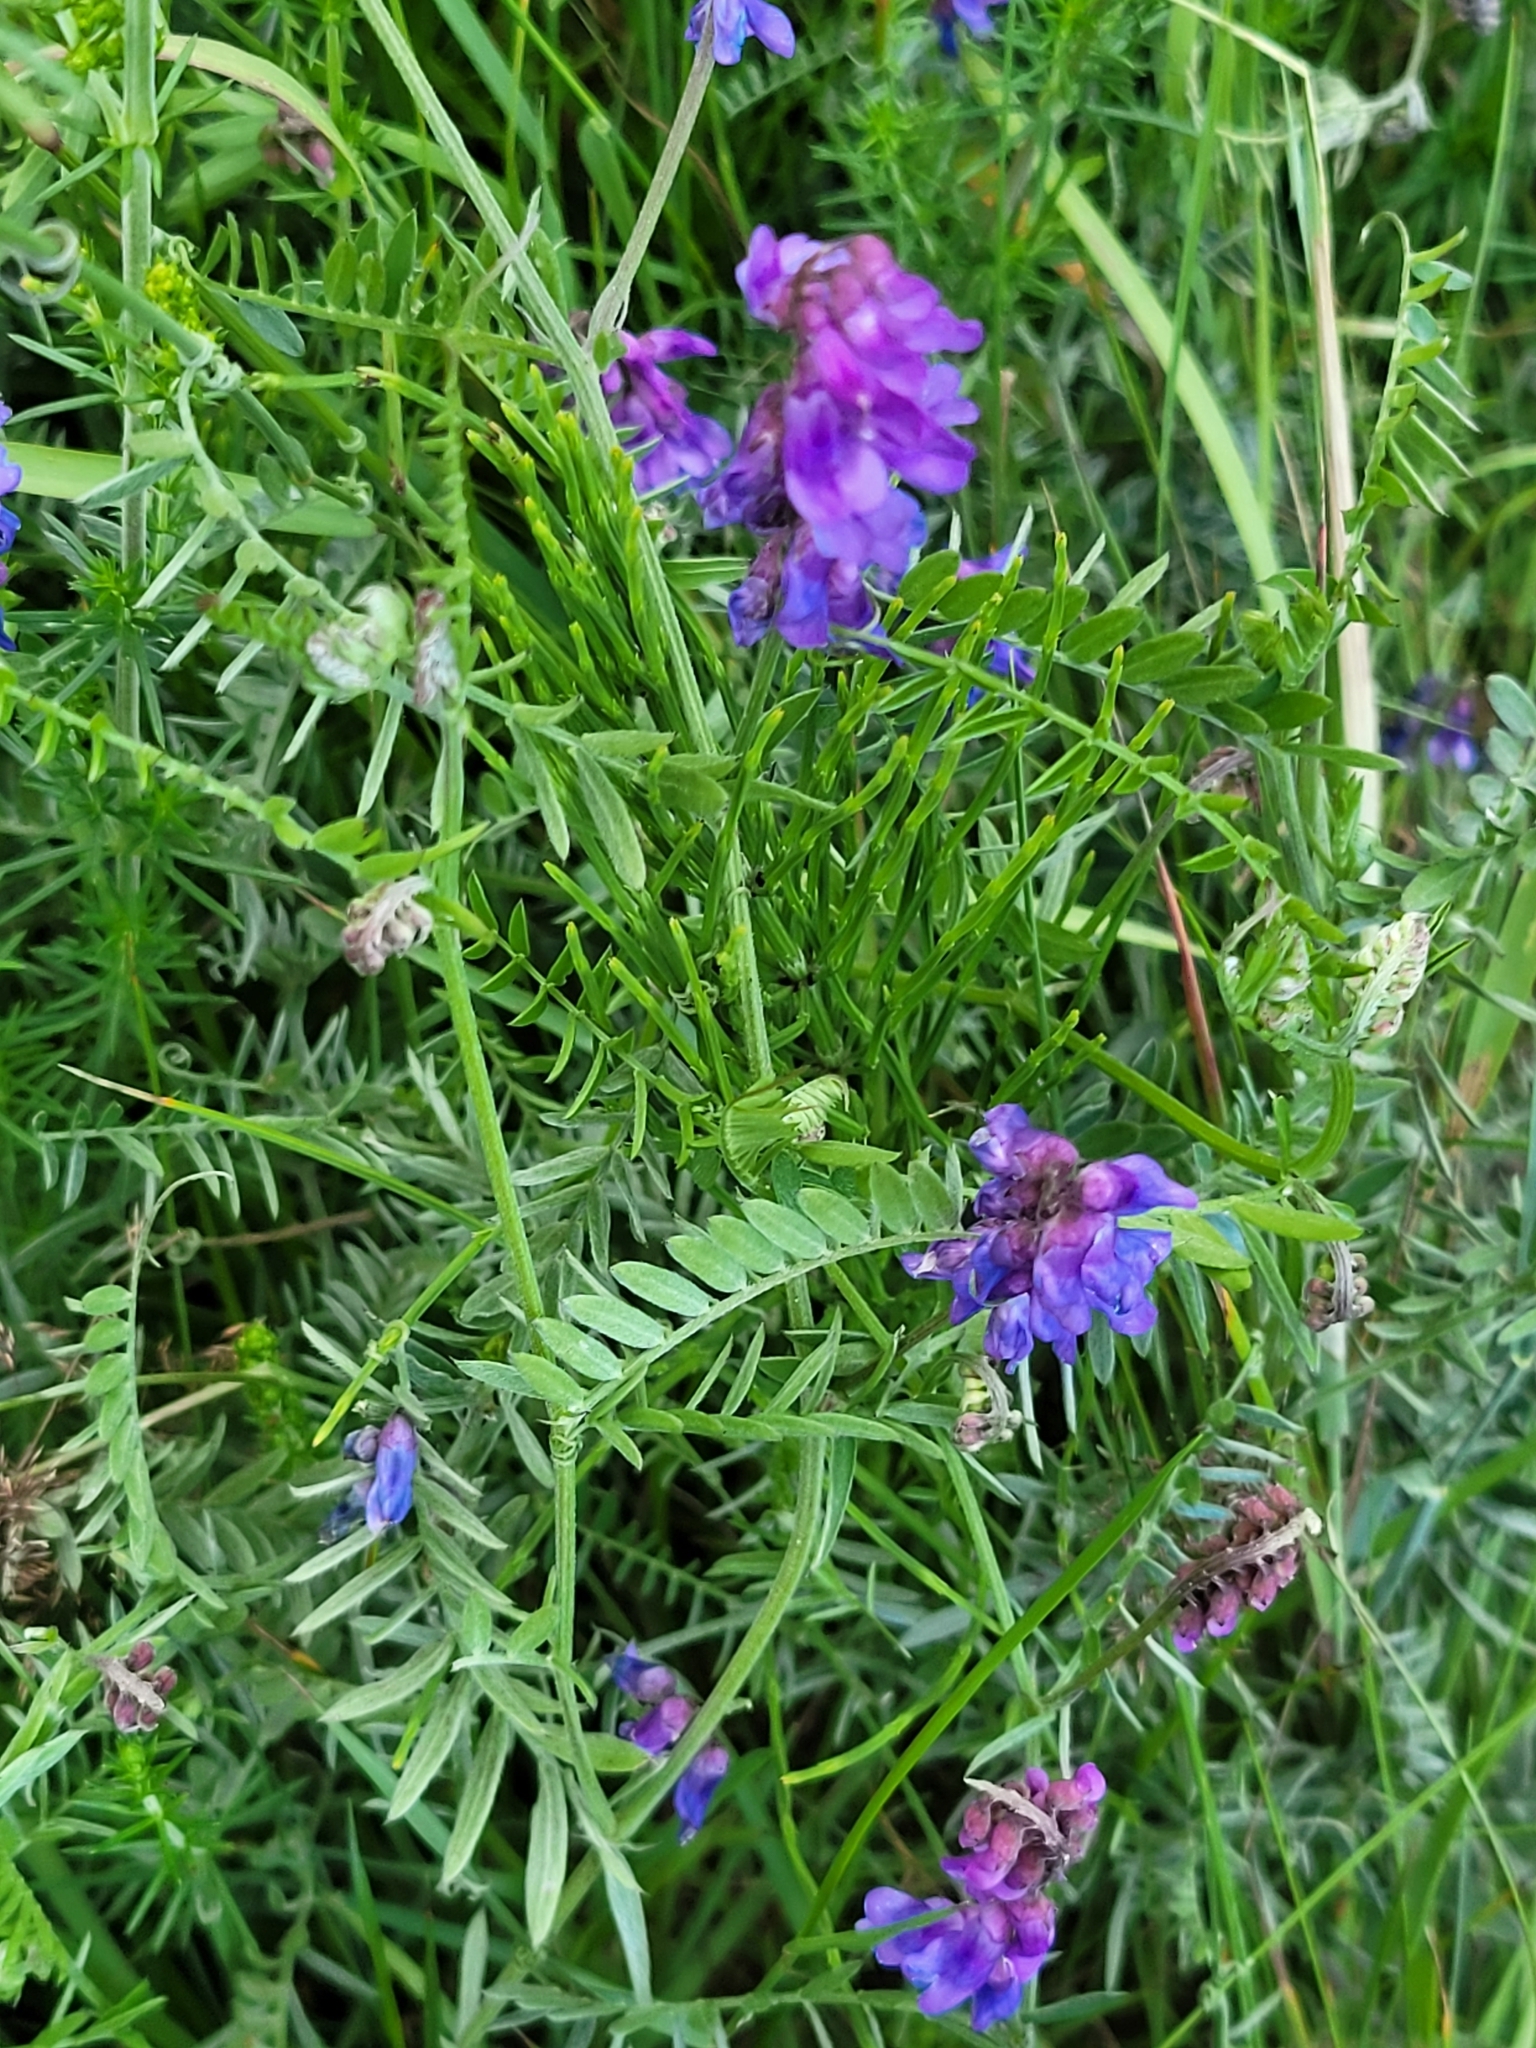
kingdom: Plantae
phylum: Tracheophyta
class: Magnoliopsida
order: Fabales
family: Fabaceae
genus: Vicia
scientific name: Vicia cracca
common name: Bird vetch
